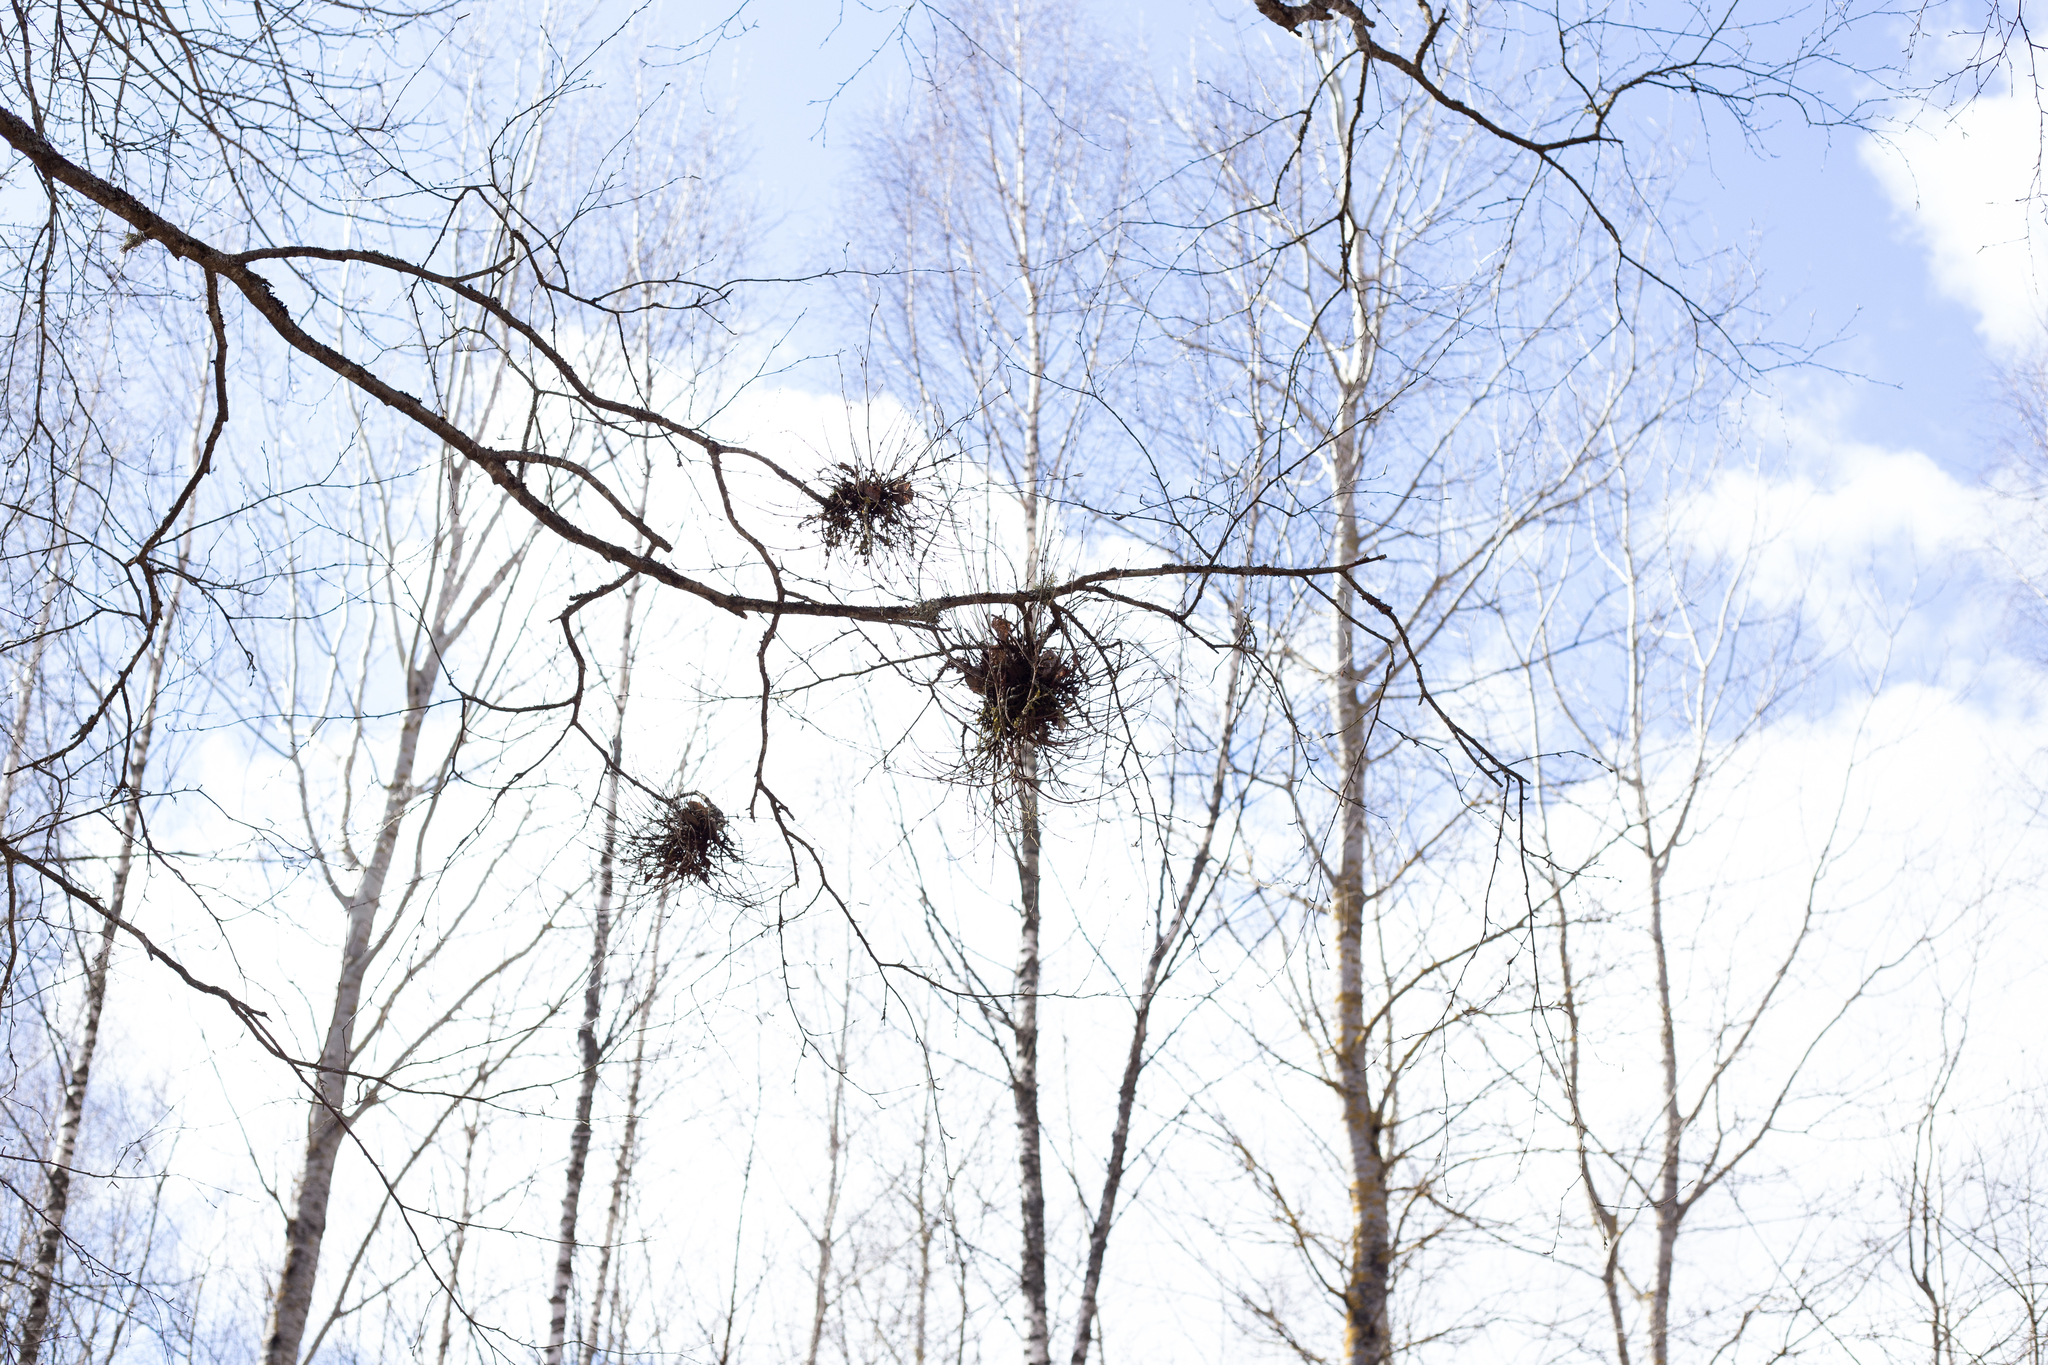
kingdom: Fungi
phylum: Ascomycota
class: Taphrinomycetes
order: Taphrinales
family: Taphrinaceae
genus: Taphrina
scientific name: Taphrina betulina
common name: Birch besom
